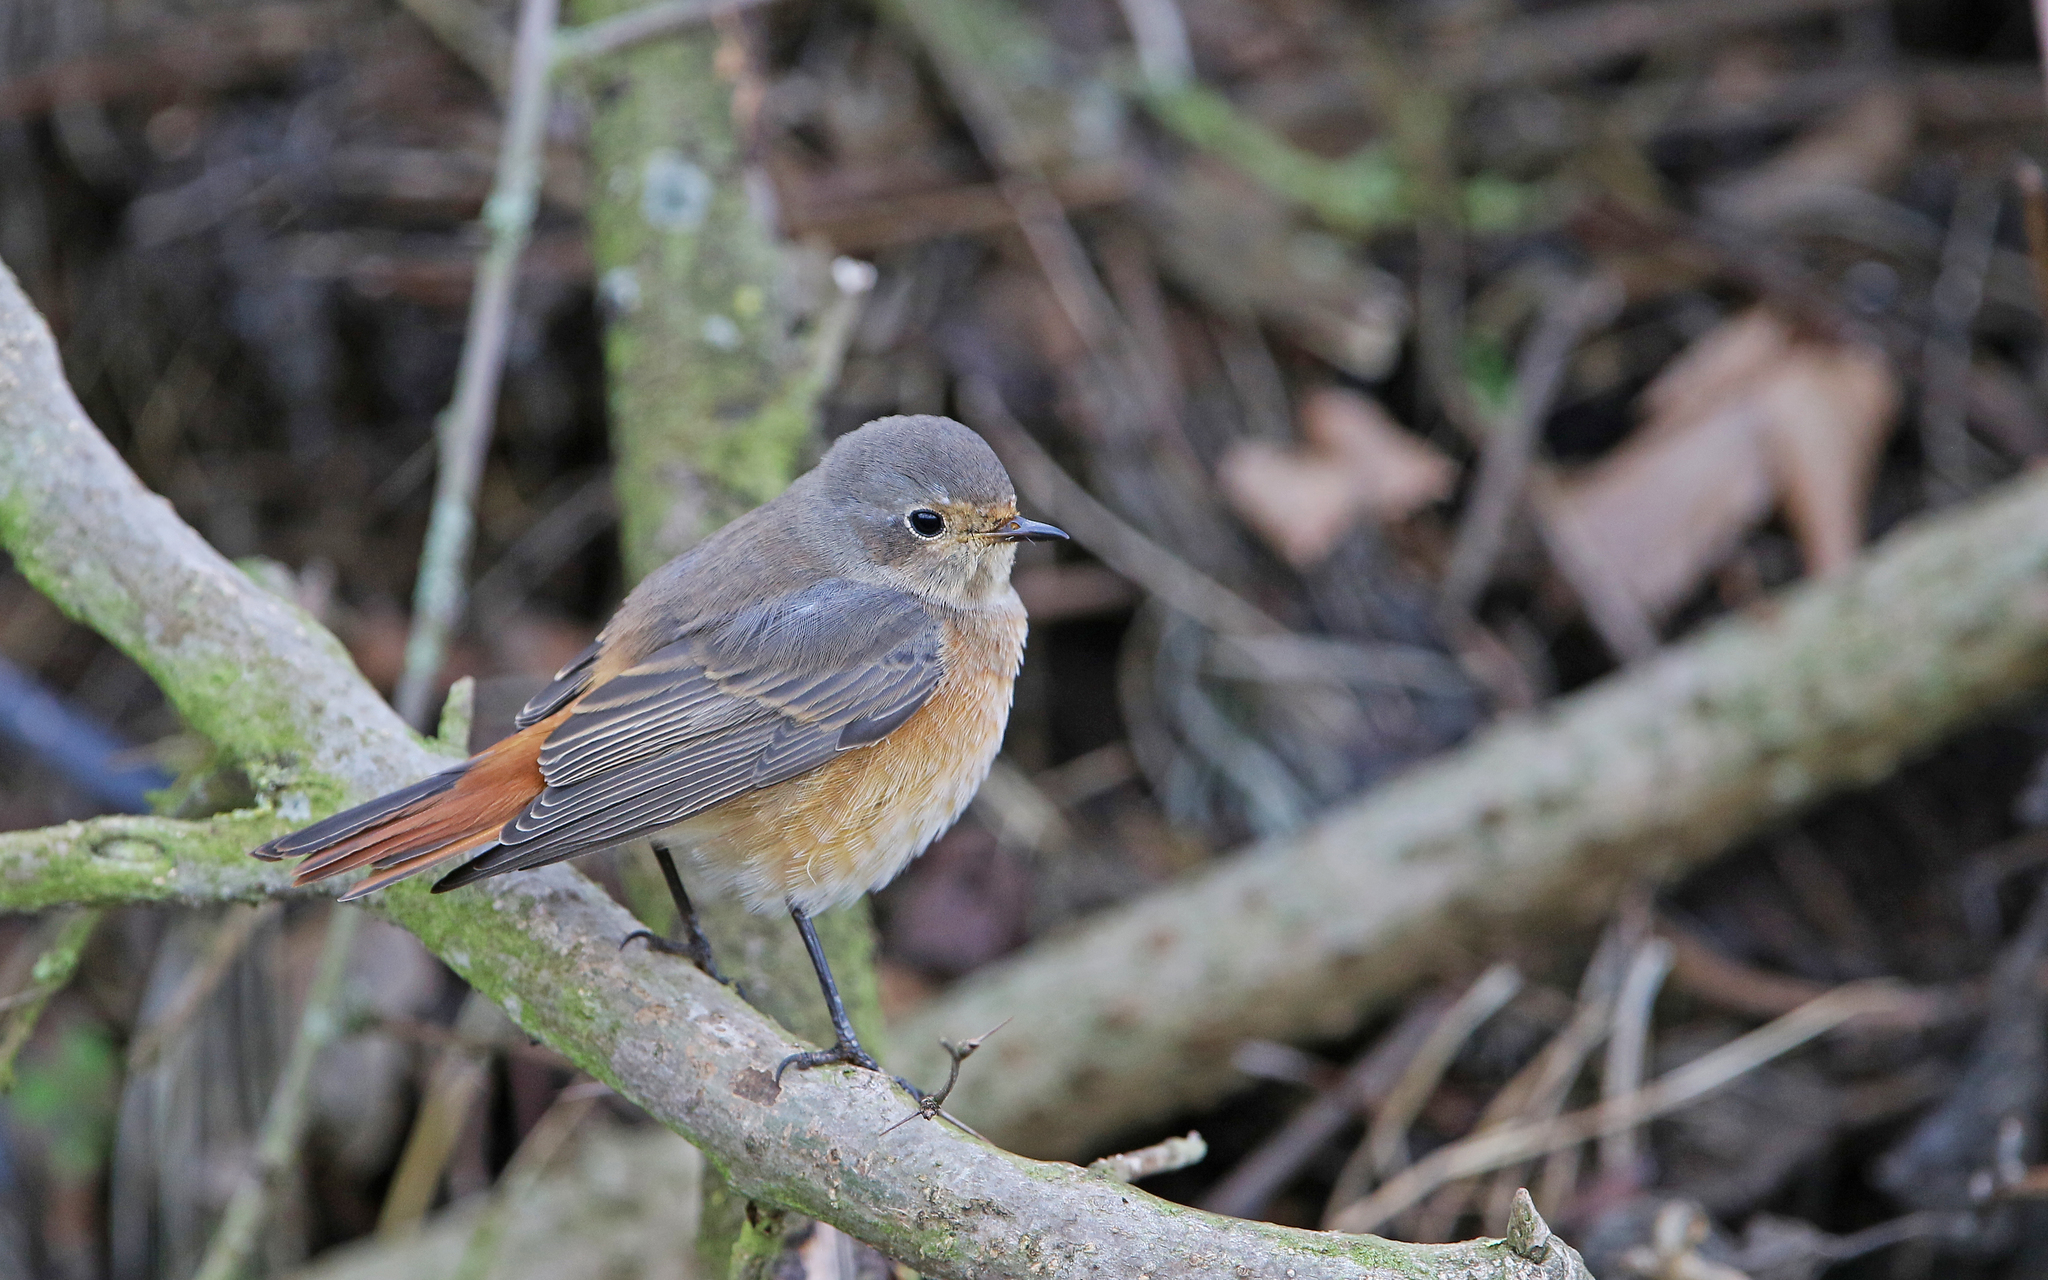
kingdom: Animalia
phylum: Chordata
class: Aves
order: Passeriformes
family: Muscicapidae
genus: Phoenicurus
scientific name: Phoenicurus phoenicurus
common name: Common redstart
